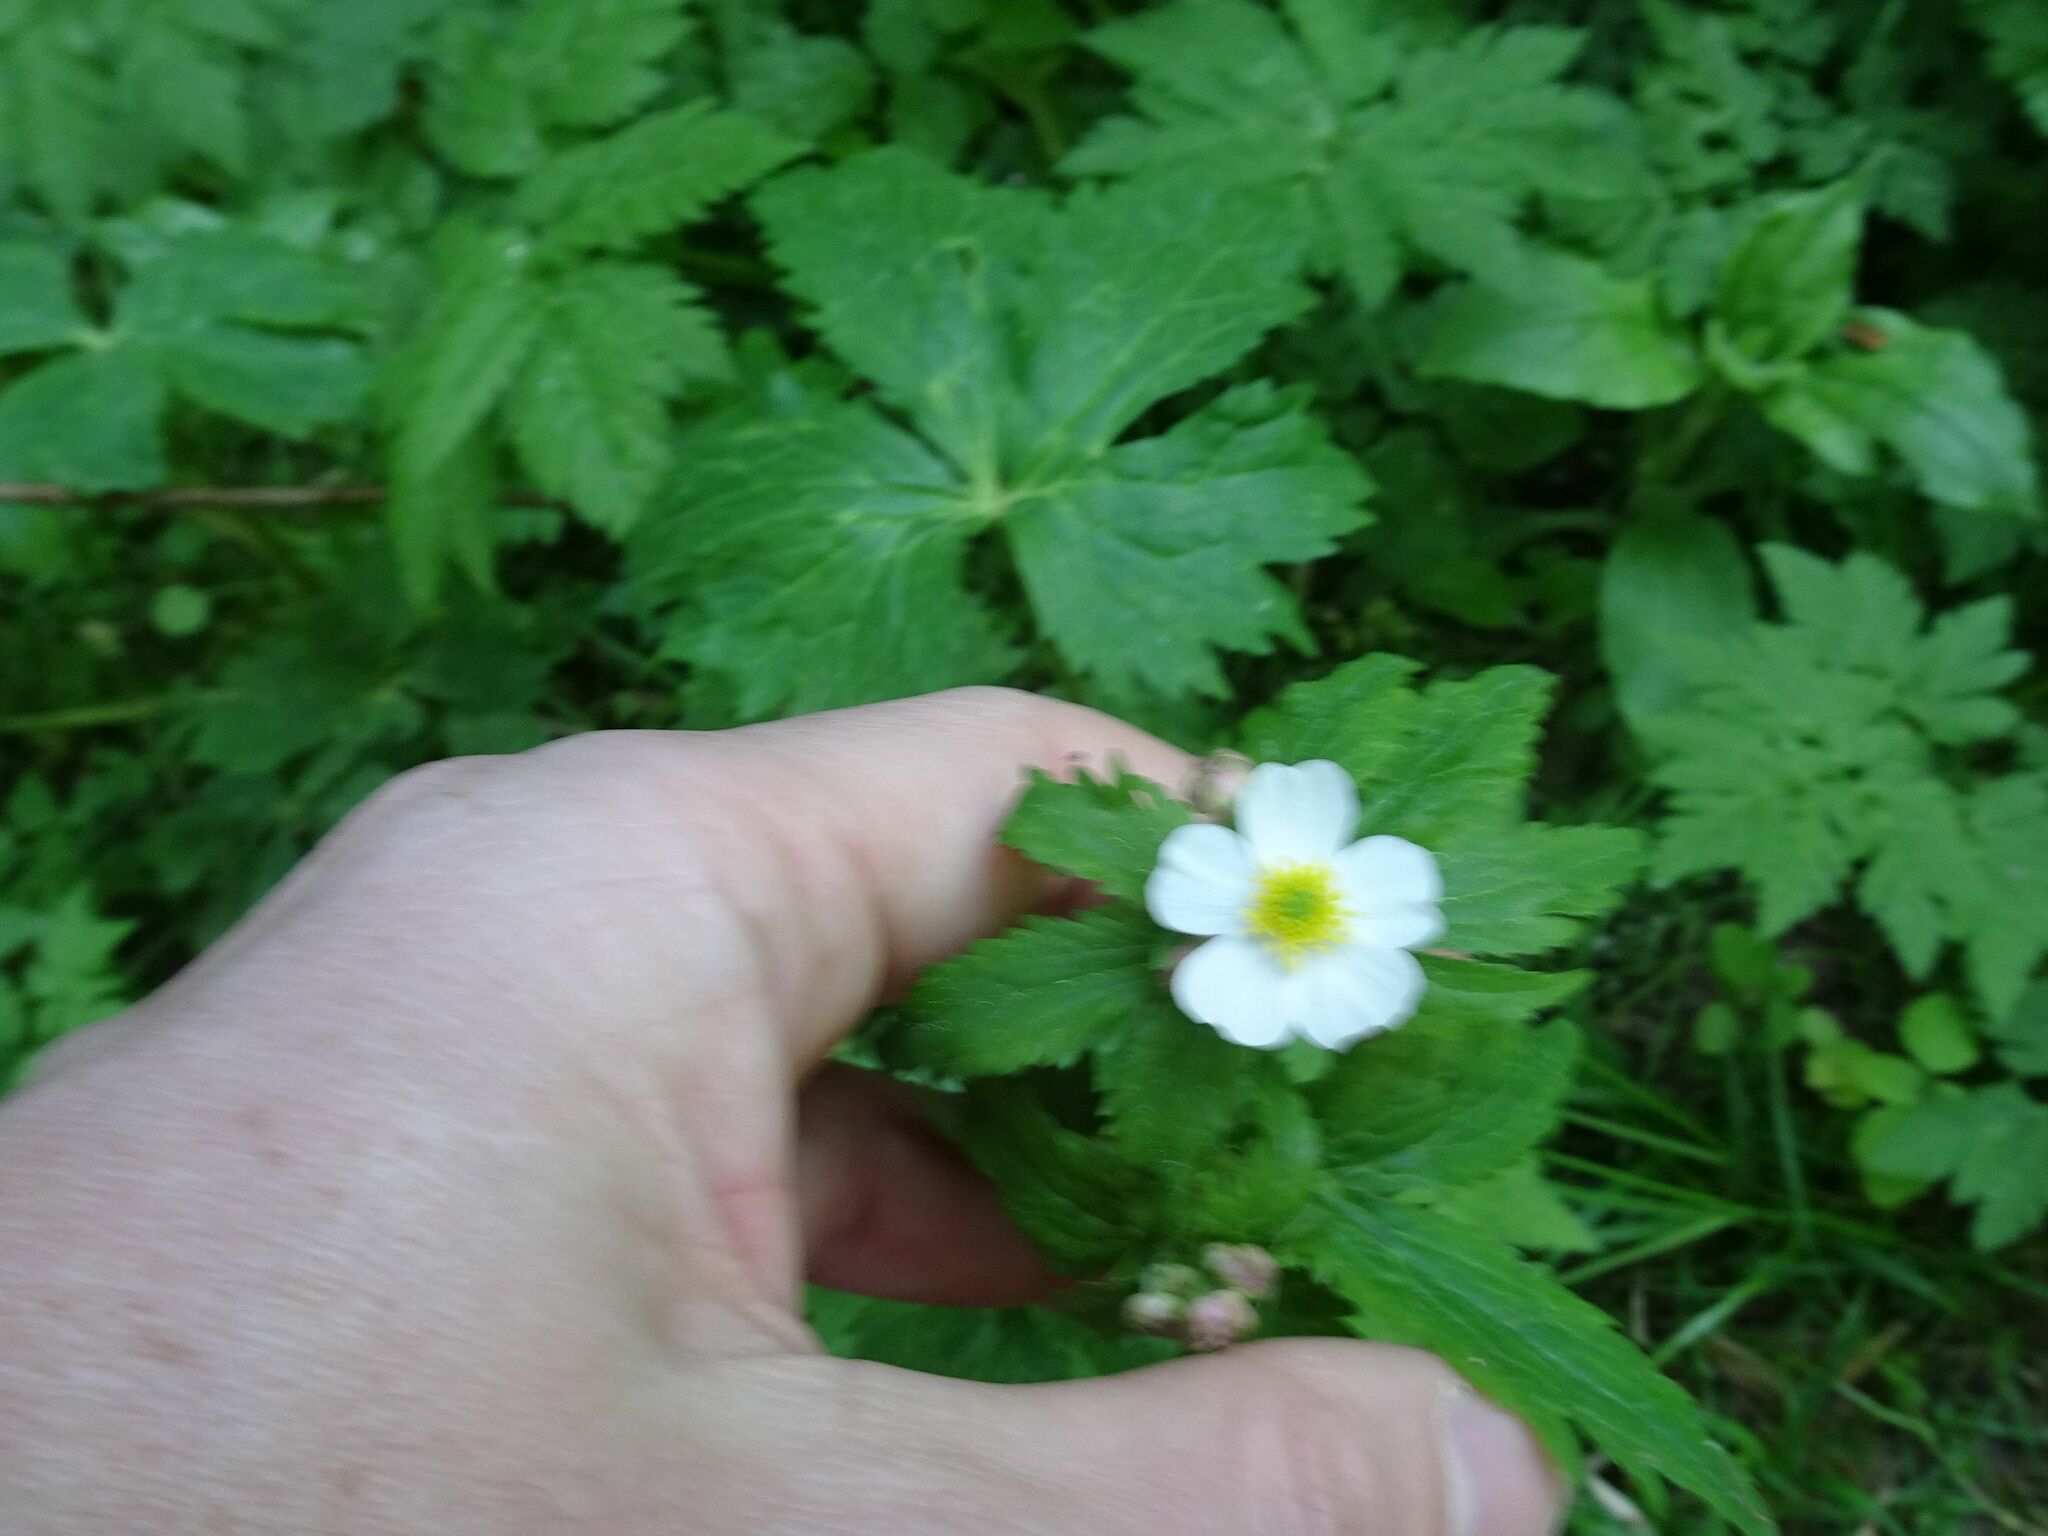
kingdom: Plantae
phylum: Tracheophyta
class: Magnoliopsida
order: Ranunculales
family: Ranunculaceae
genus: Ranunculus
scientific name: Ranunculus aconitifolius
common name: Aconite-leaved buttercup
